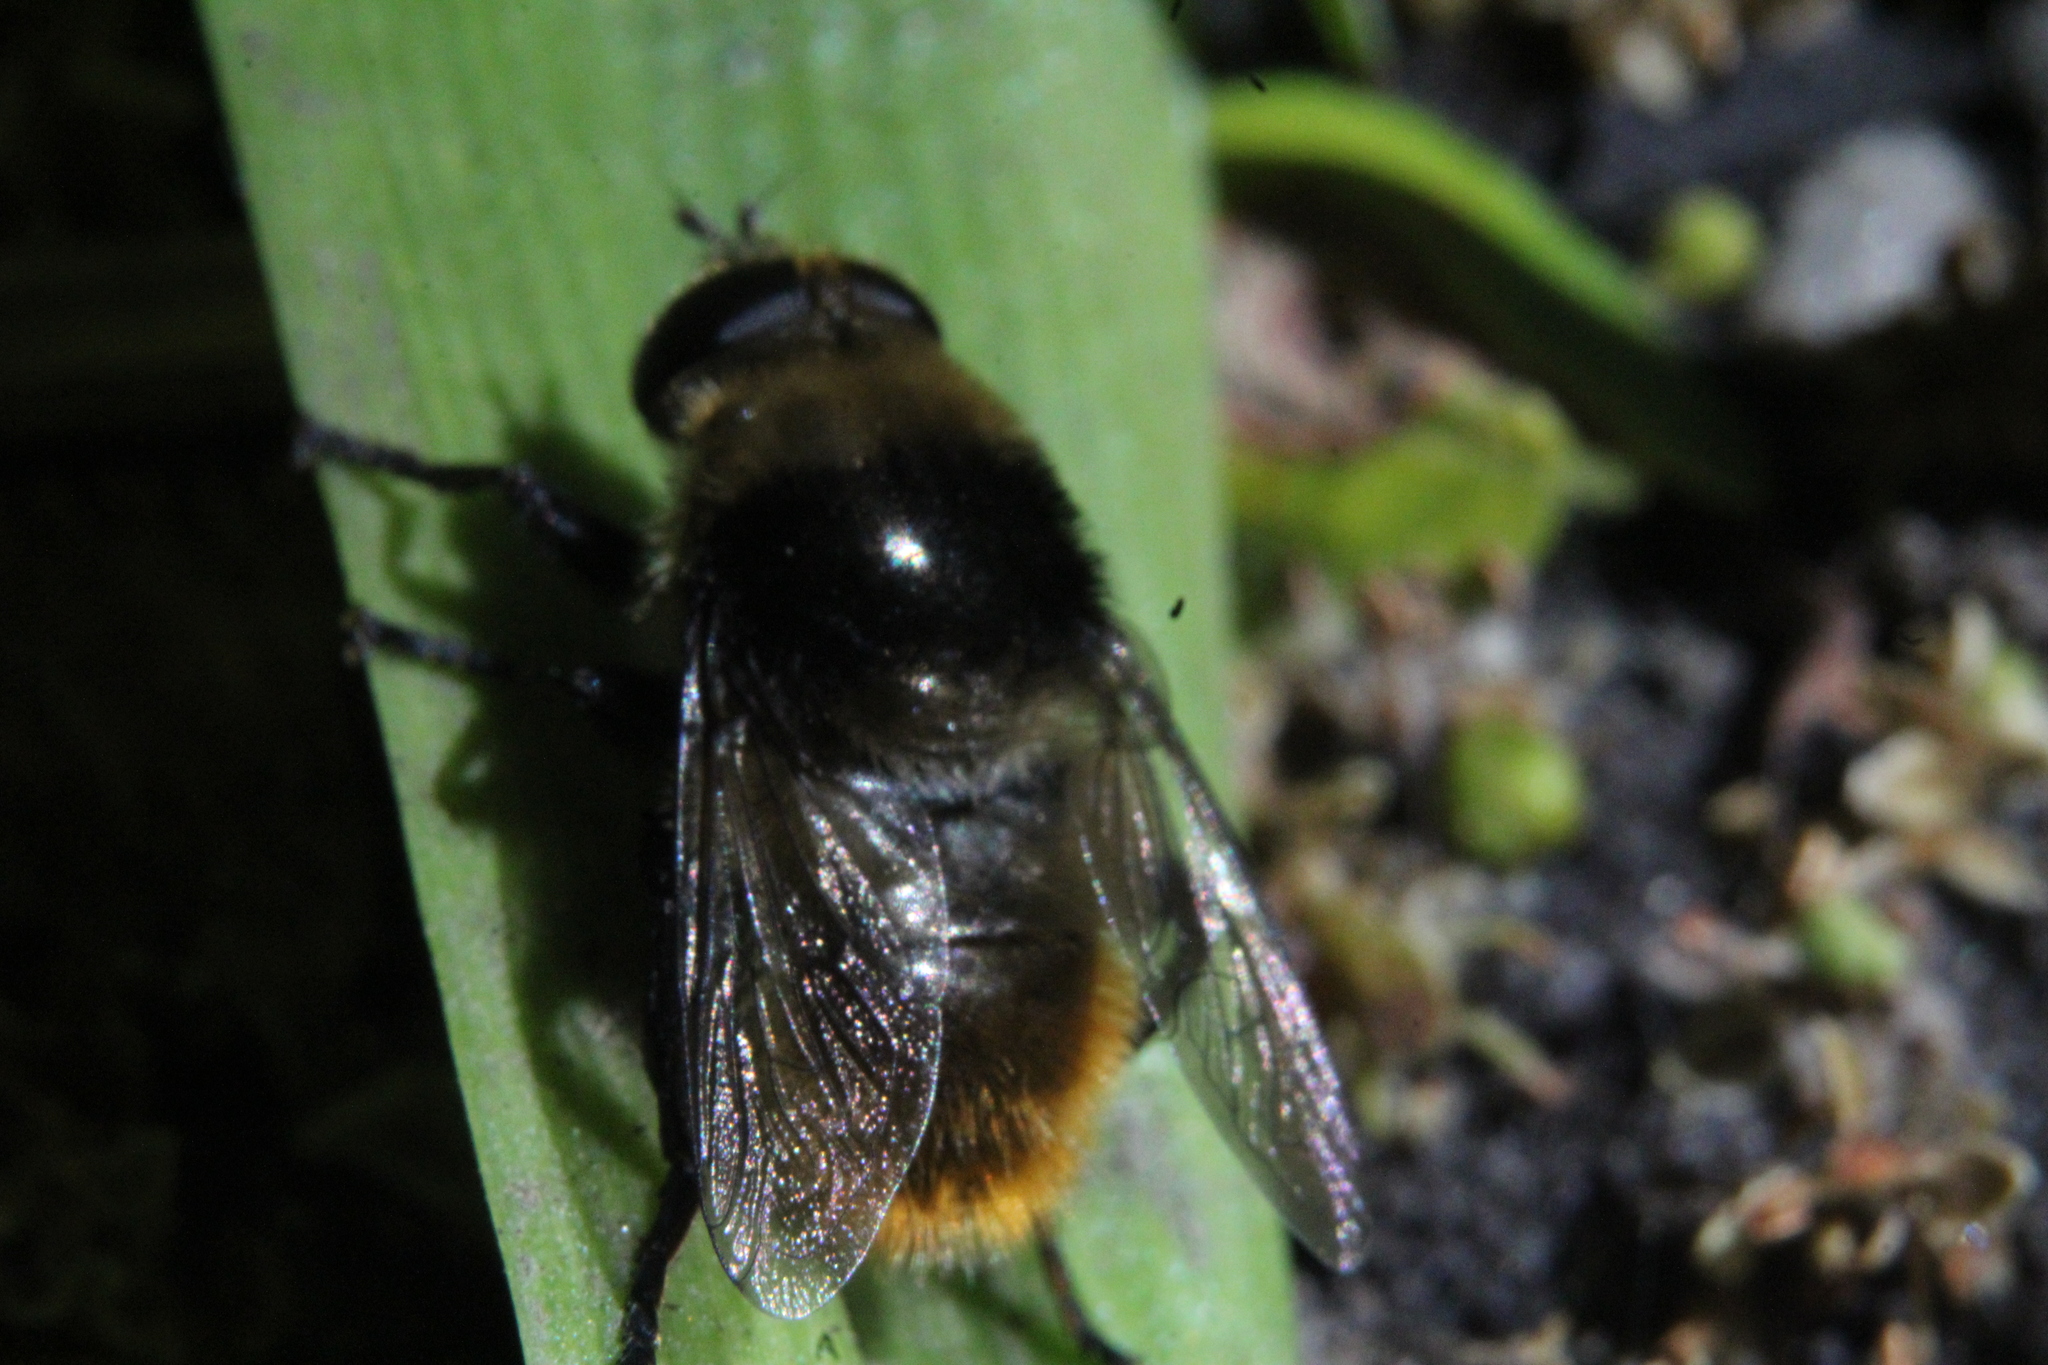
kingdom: Animalia
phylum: Arthropoda
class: Insecta
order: Diptera
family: Syrphidae
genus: Merodon
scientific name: Merodon equestris
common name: Greater bulb-fly
